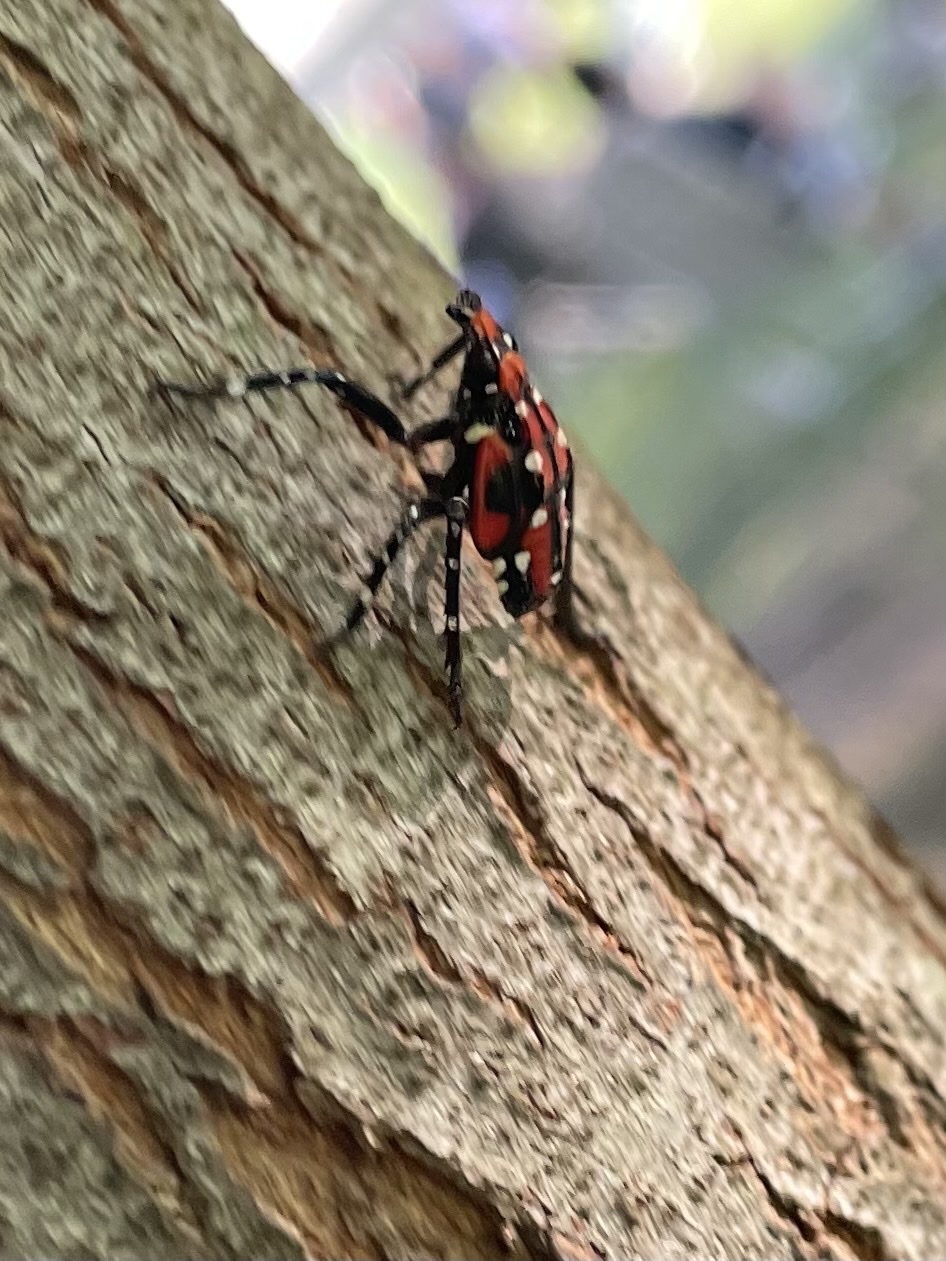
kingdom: Animalia
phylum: Arthropoda
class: Insecta
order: Hemiptera
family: Fulgoridae
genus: Lycorma
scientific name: Lycorma delicatula
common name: Spotted lanternfly
